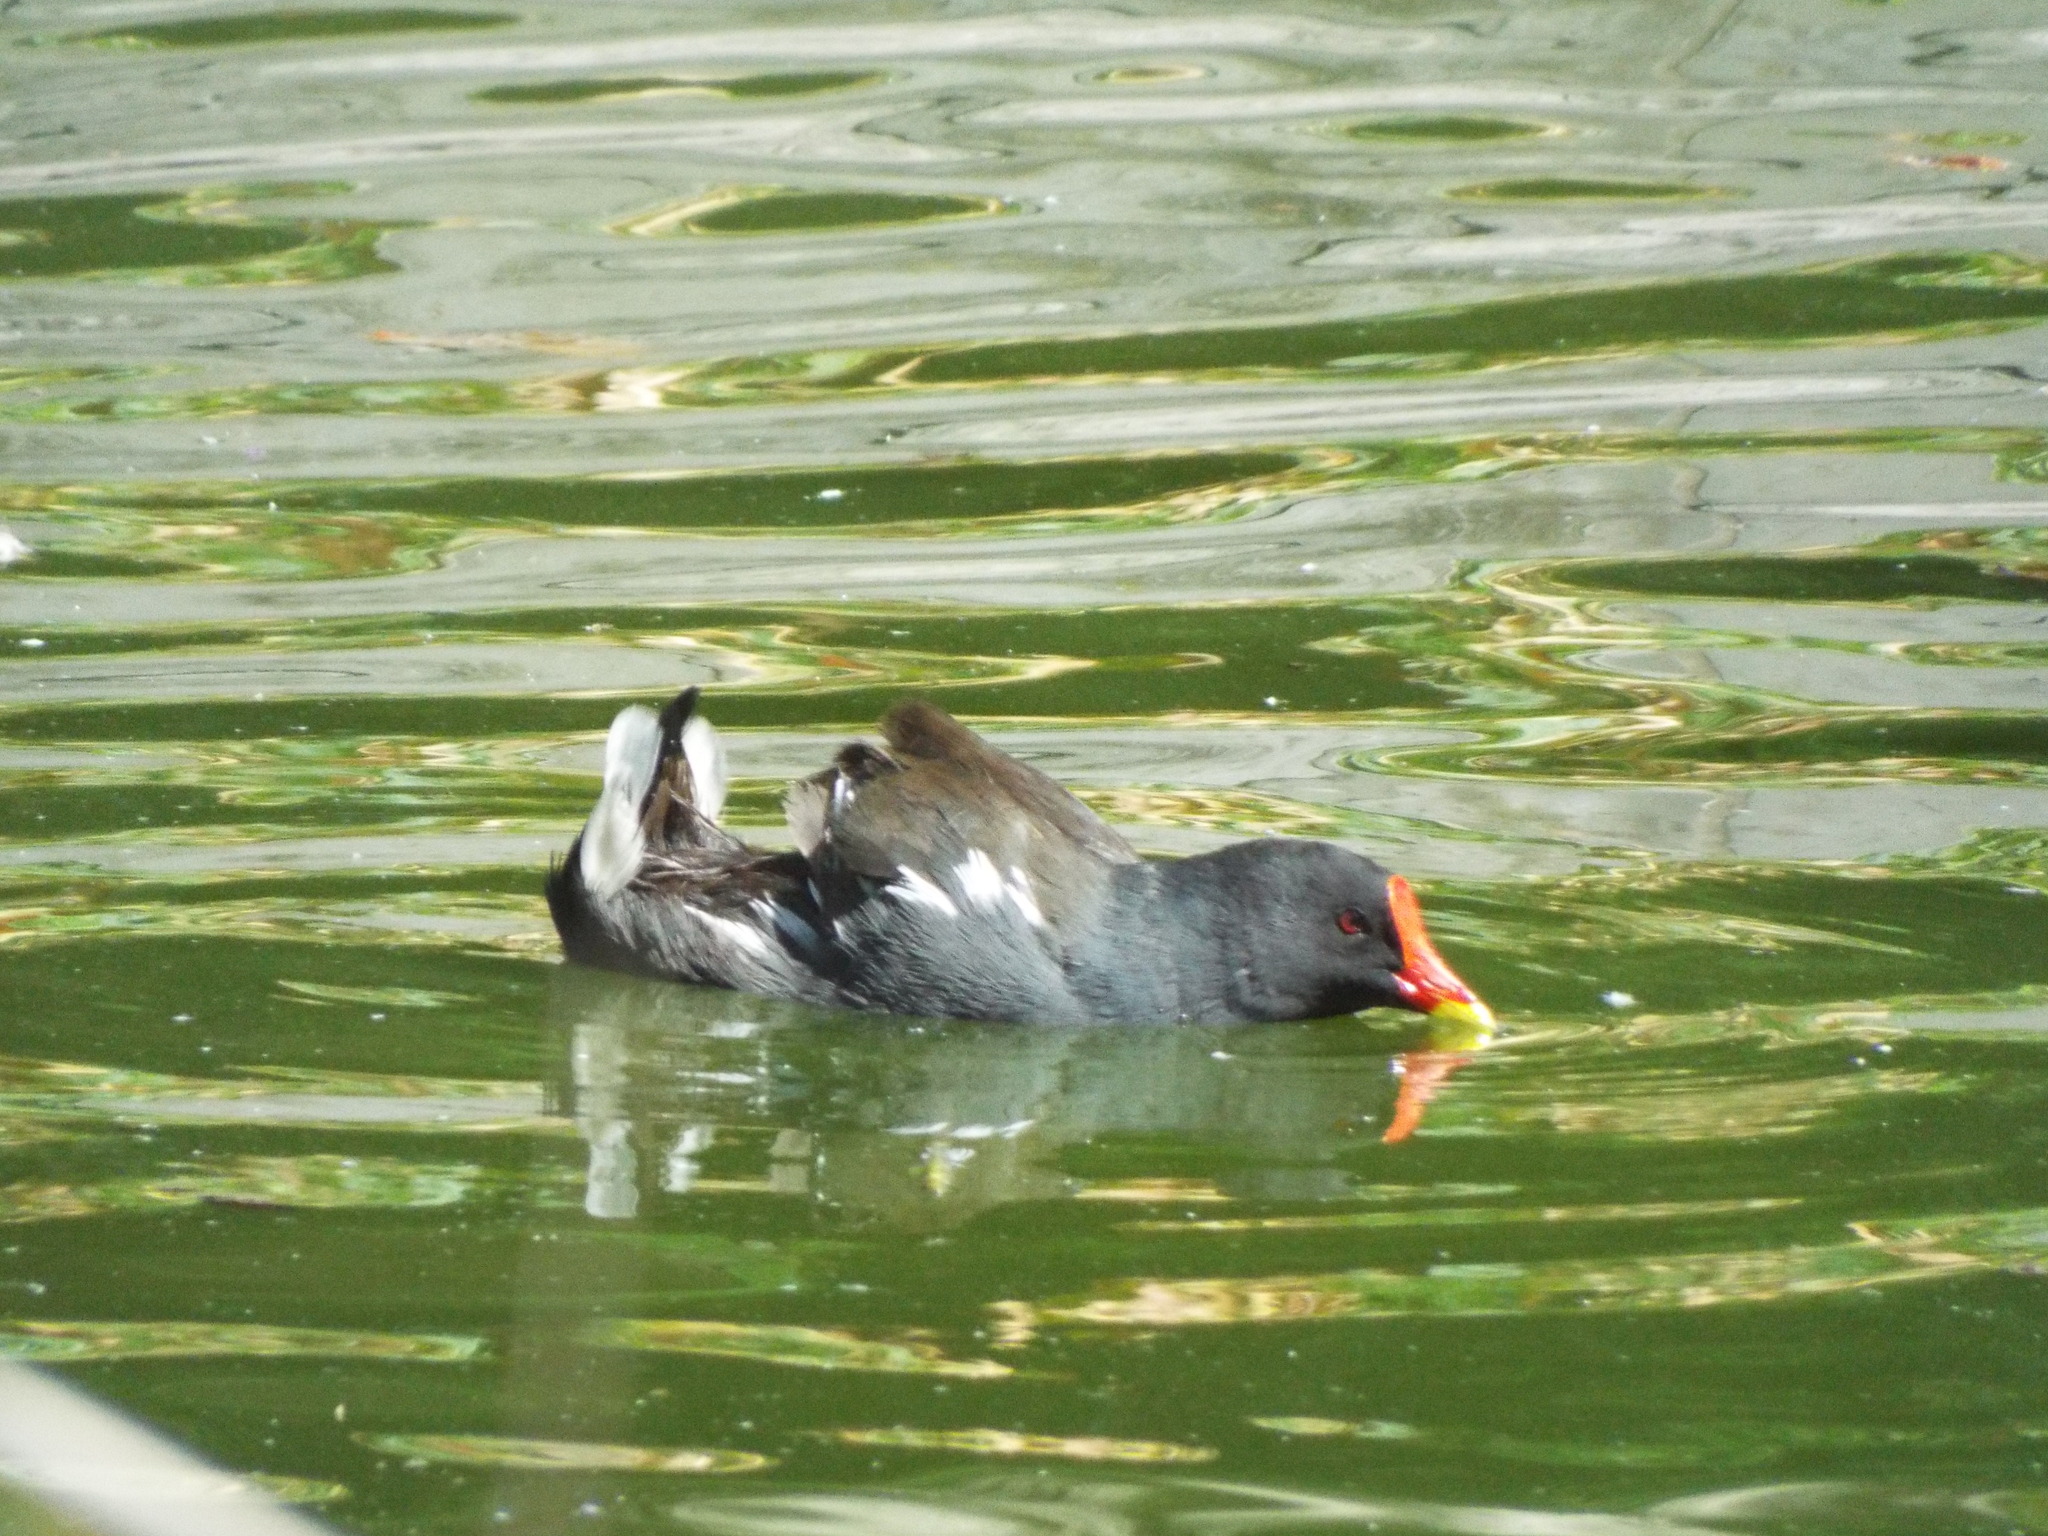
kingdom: Animalia
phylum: Chordata
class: Aves
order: Gruiformes
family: Rallidae
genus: Gallinula
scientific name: Gallinula chloropus
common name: Common moorhen
